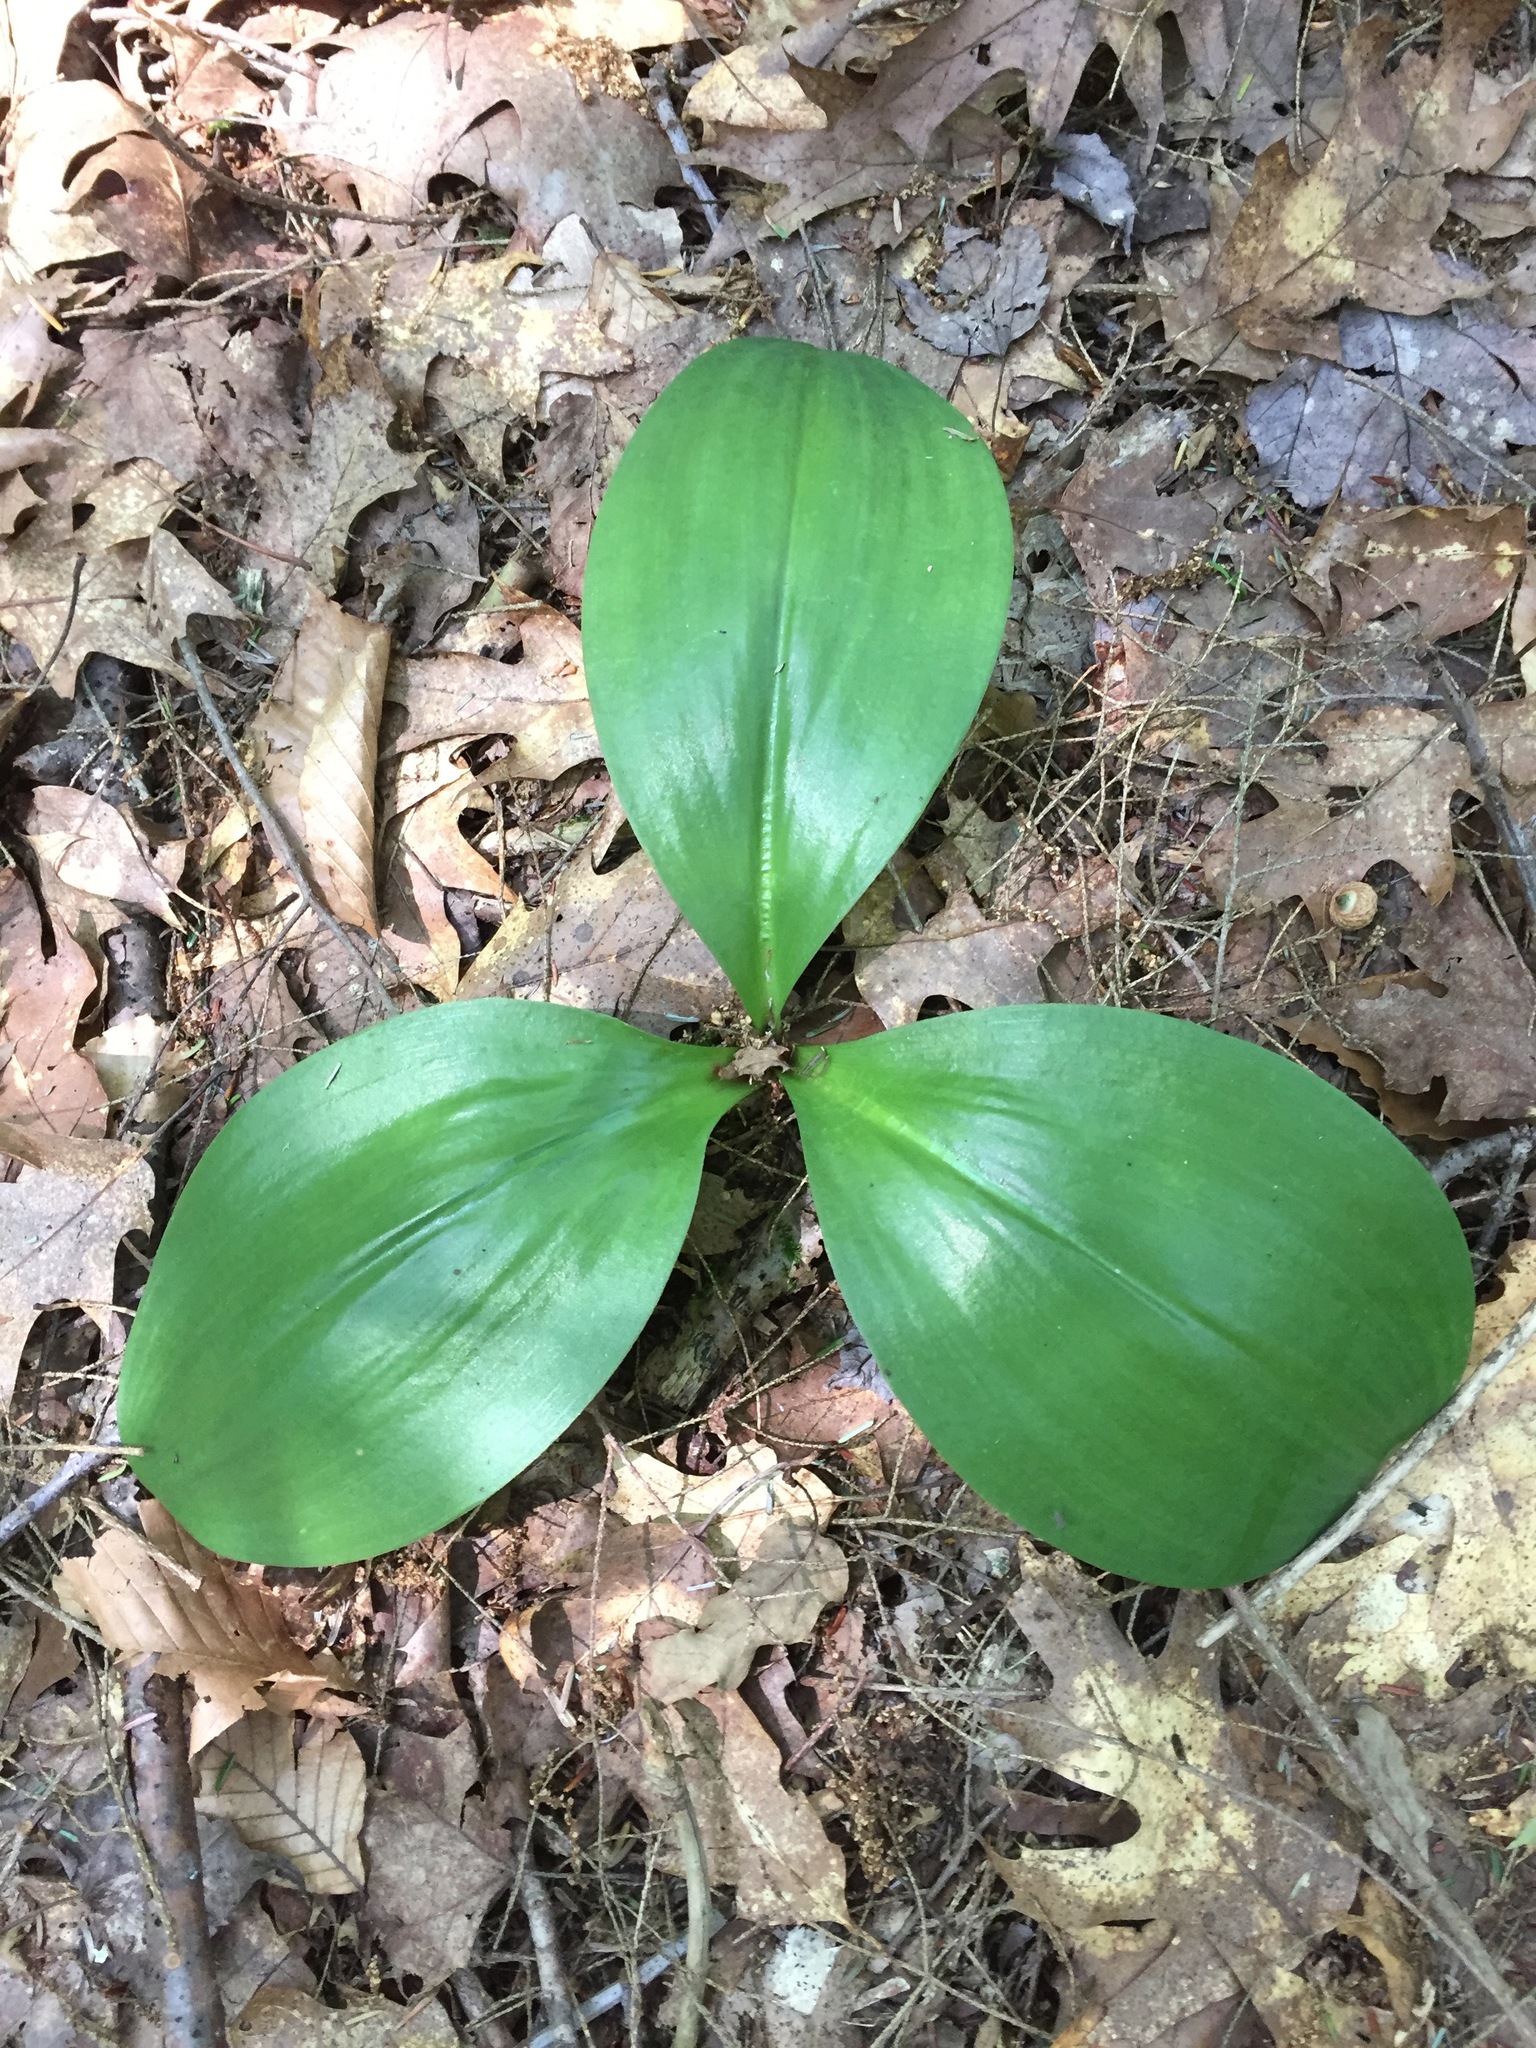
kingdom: Plantae
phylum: Tracheophyta
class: Liliopsida
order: Liliales
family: Liliaceae
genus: Clintonia
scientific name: Clintonia borealis
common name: Yellow clintonia
